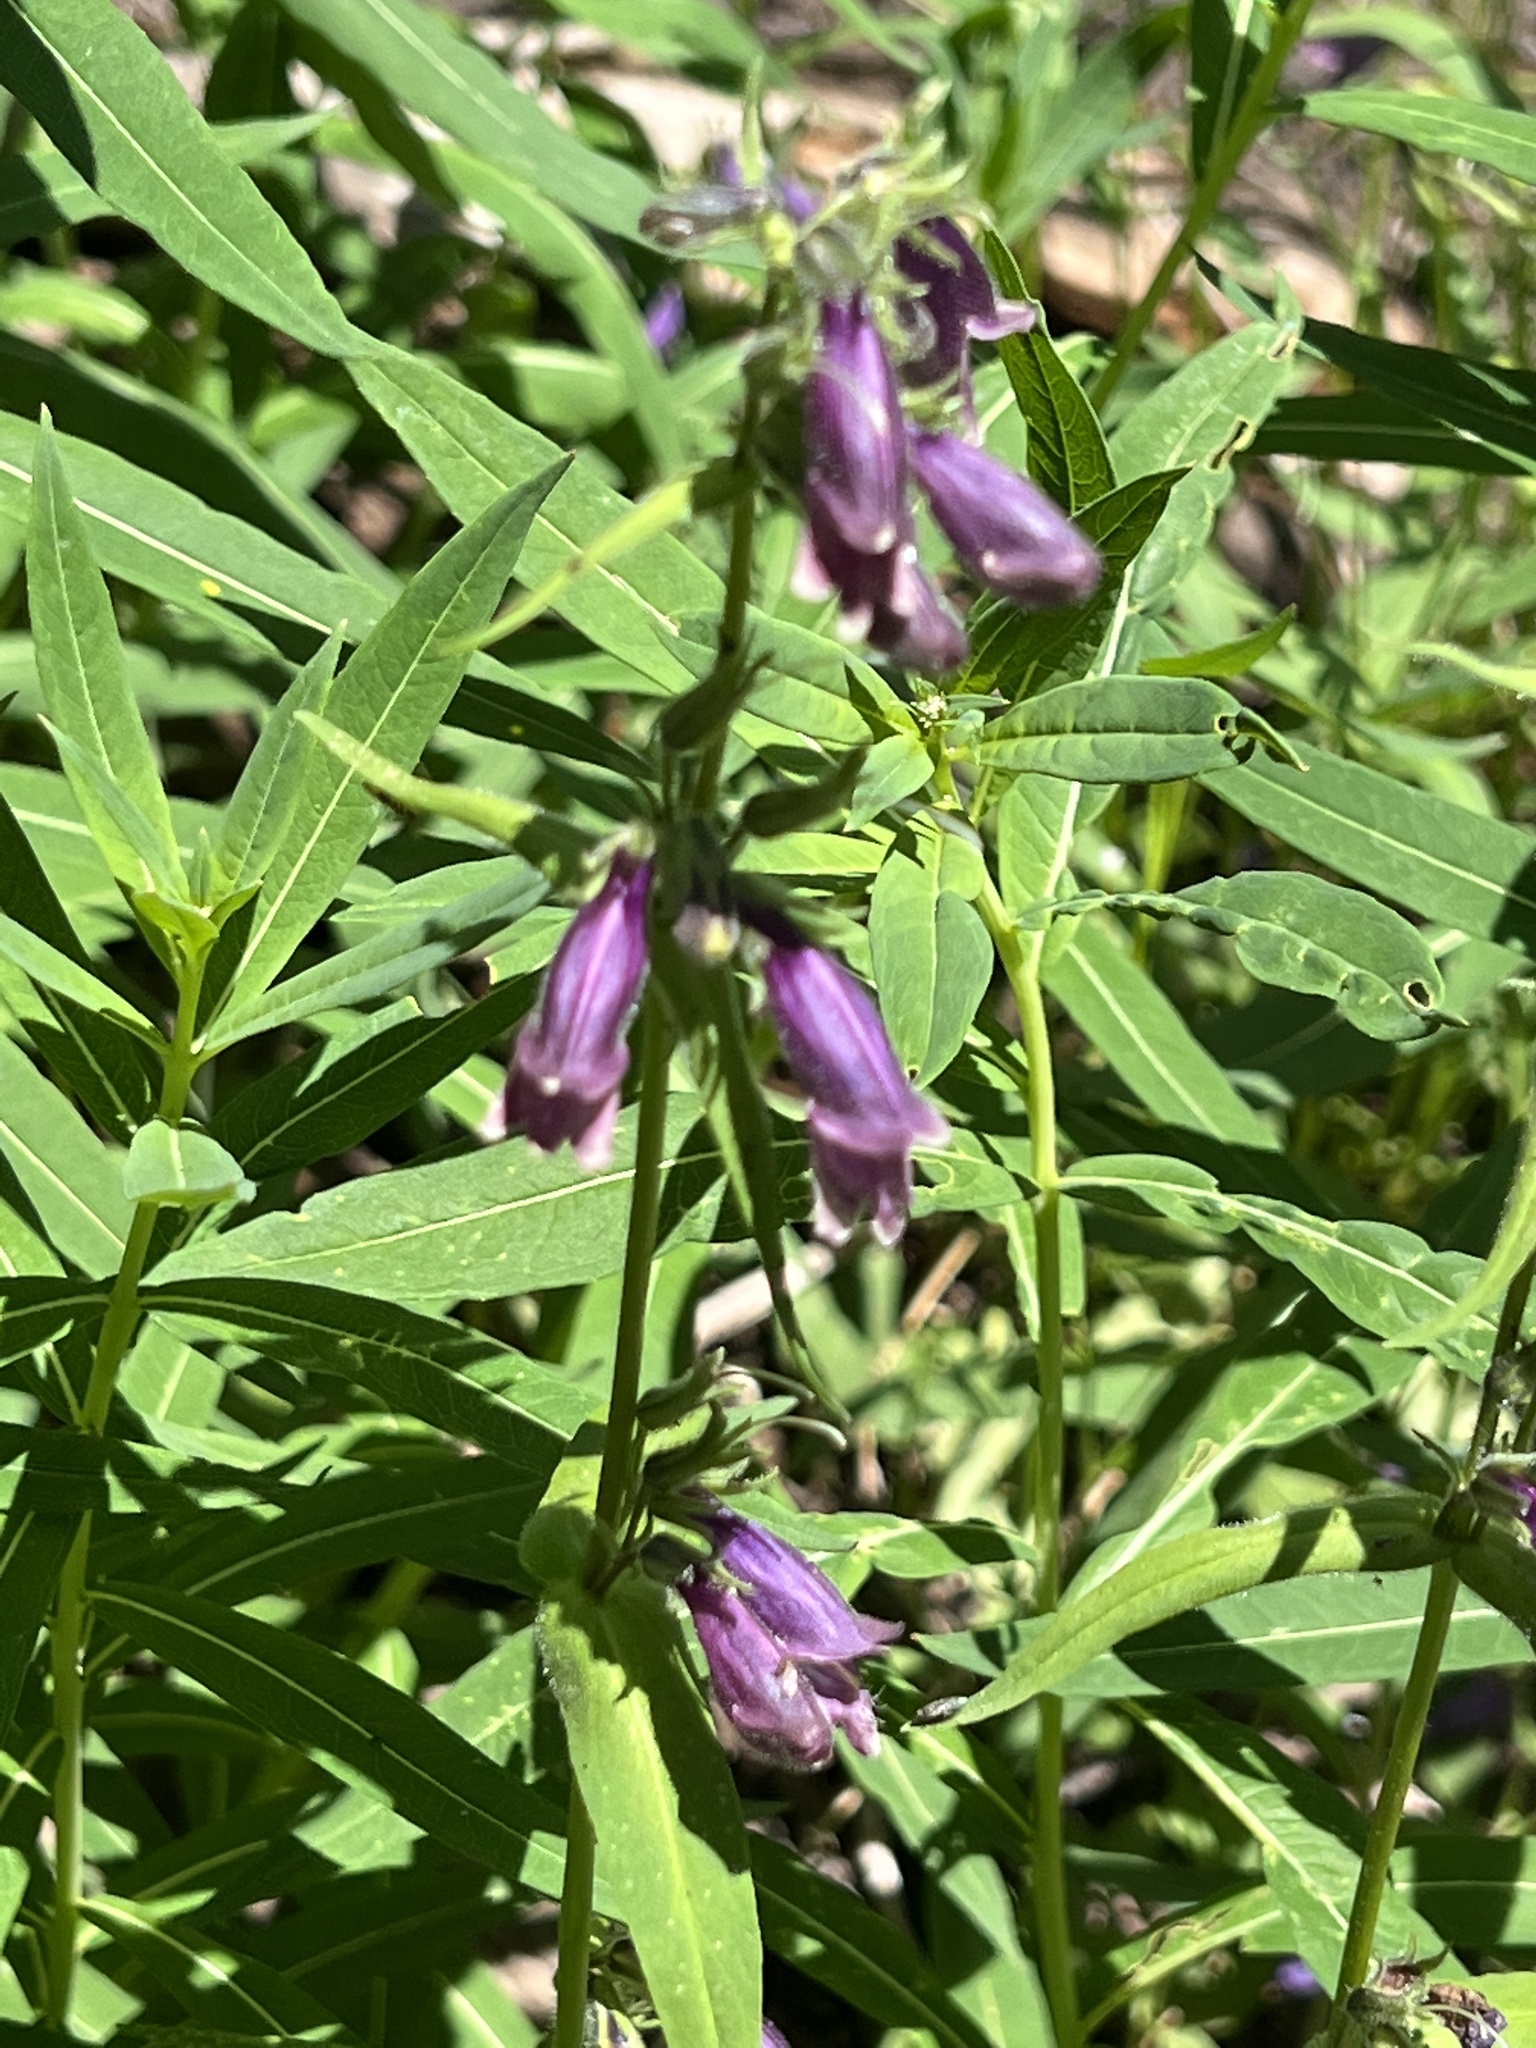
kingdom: Plantae
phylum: Tracheophyta
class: Magnoliopsida
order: Lamiales
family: Plantaginaceae
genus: Penstemon
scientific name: Penstemon whippleanus
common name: Whipple's penstemon
